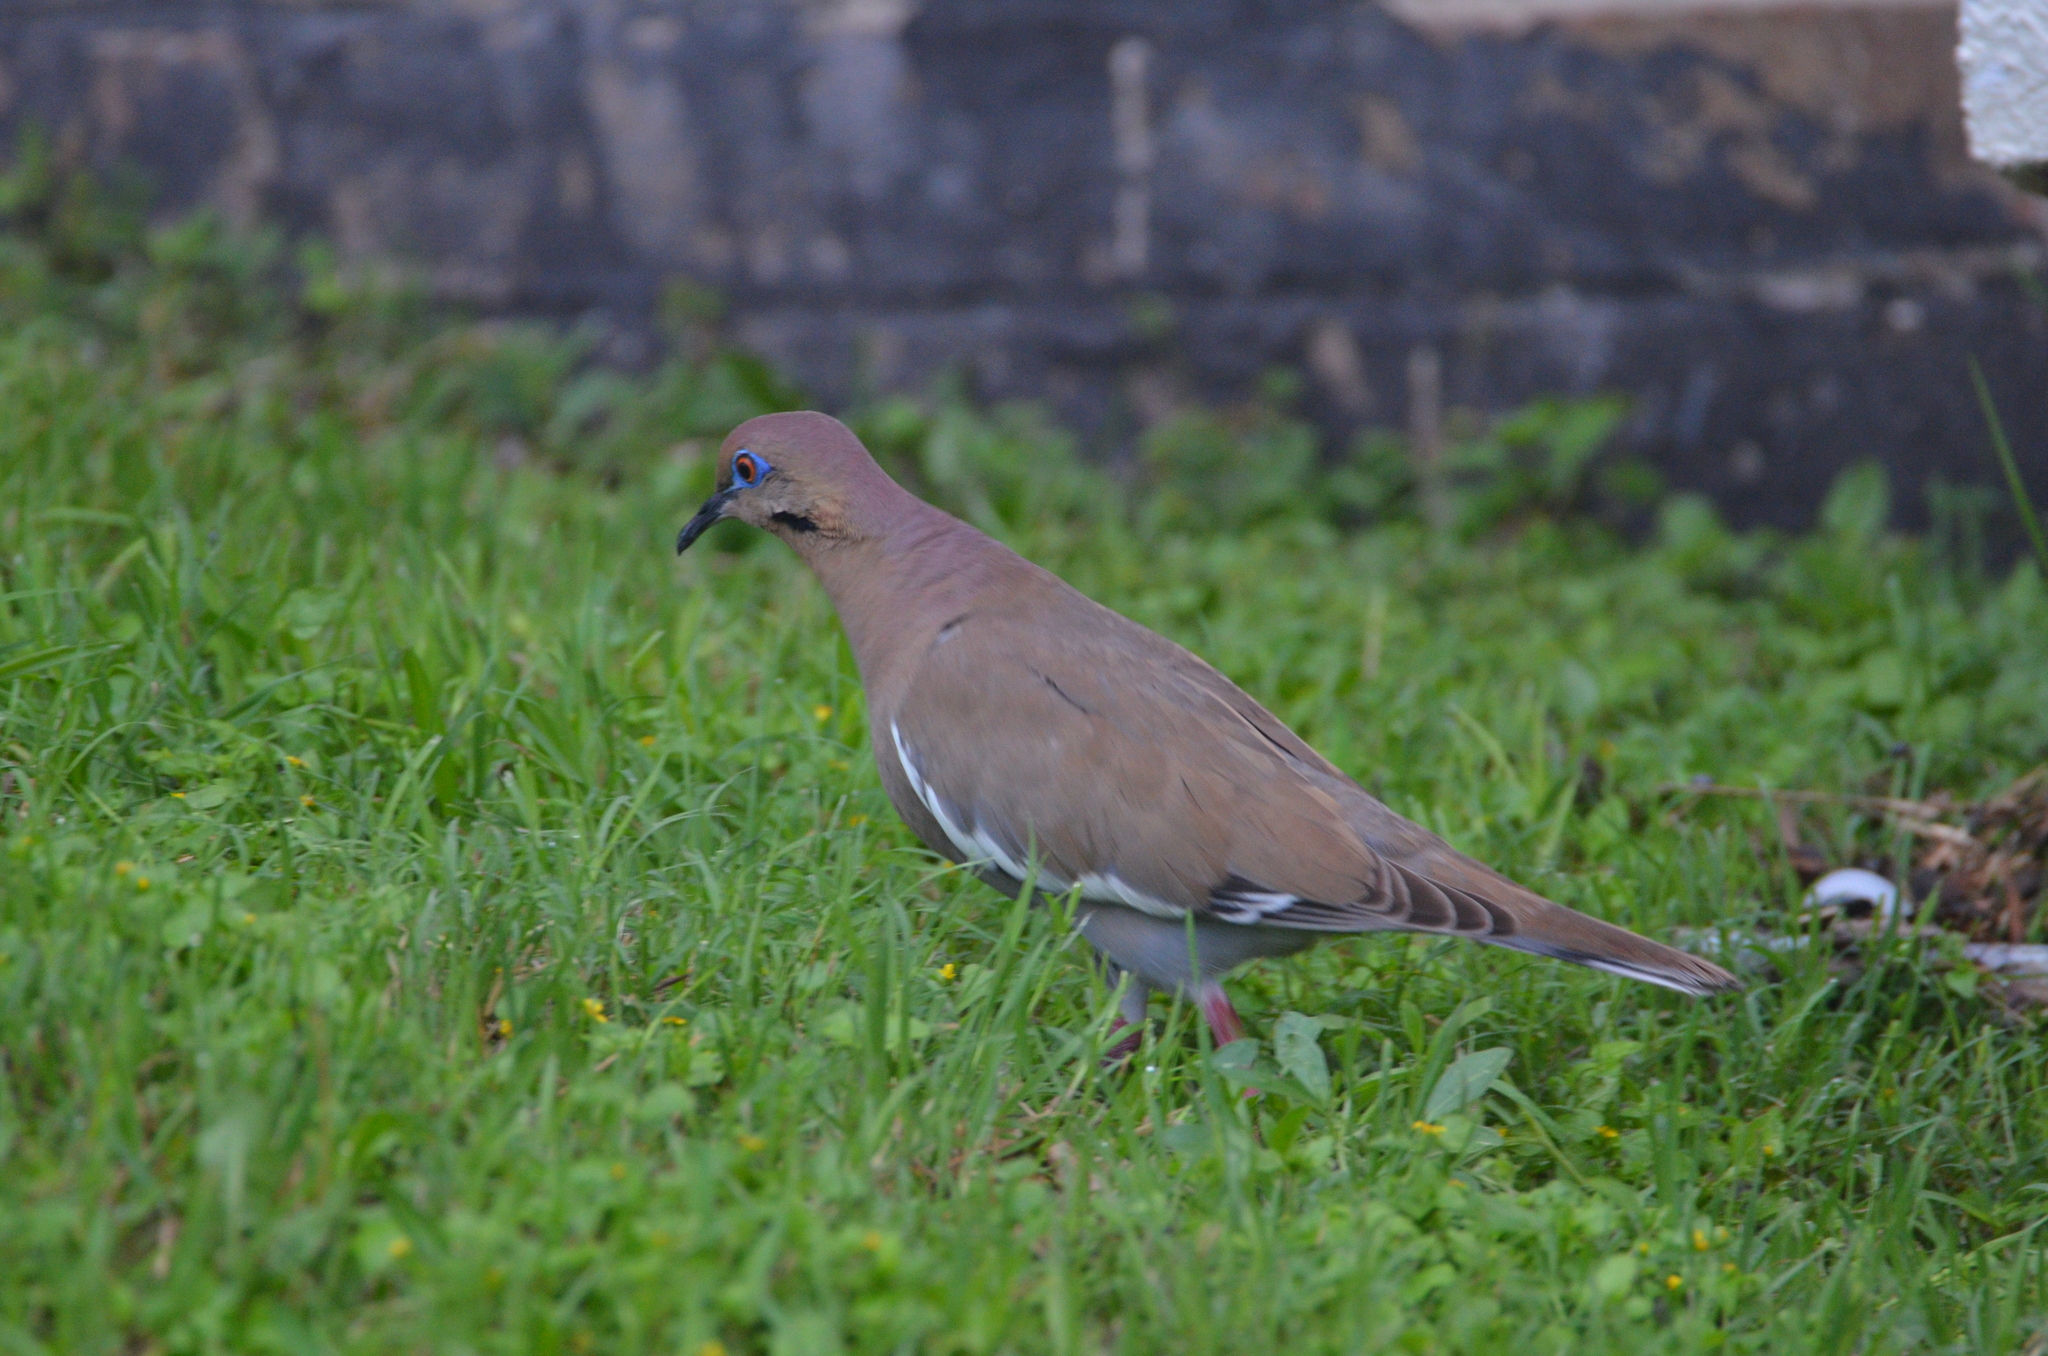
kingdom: Animalia
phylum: Chordata
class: Aves
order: Columbiformes
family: Columbidae
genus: Zenaida
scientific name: Zenaida asiatica
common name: White-winged dove
